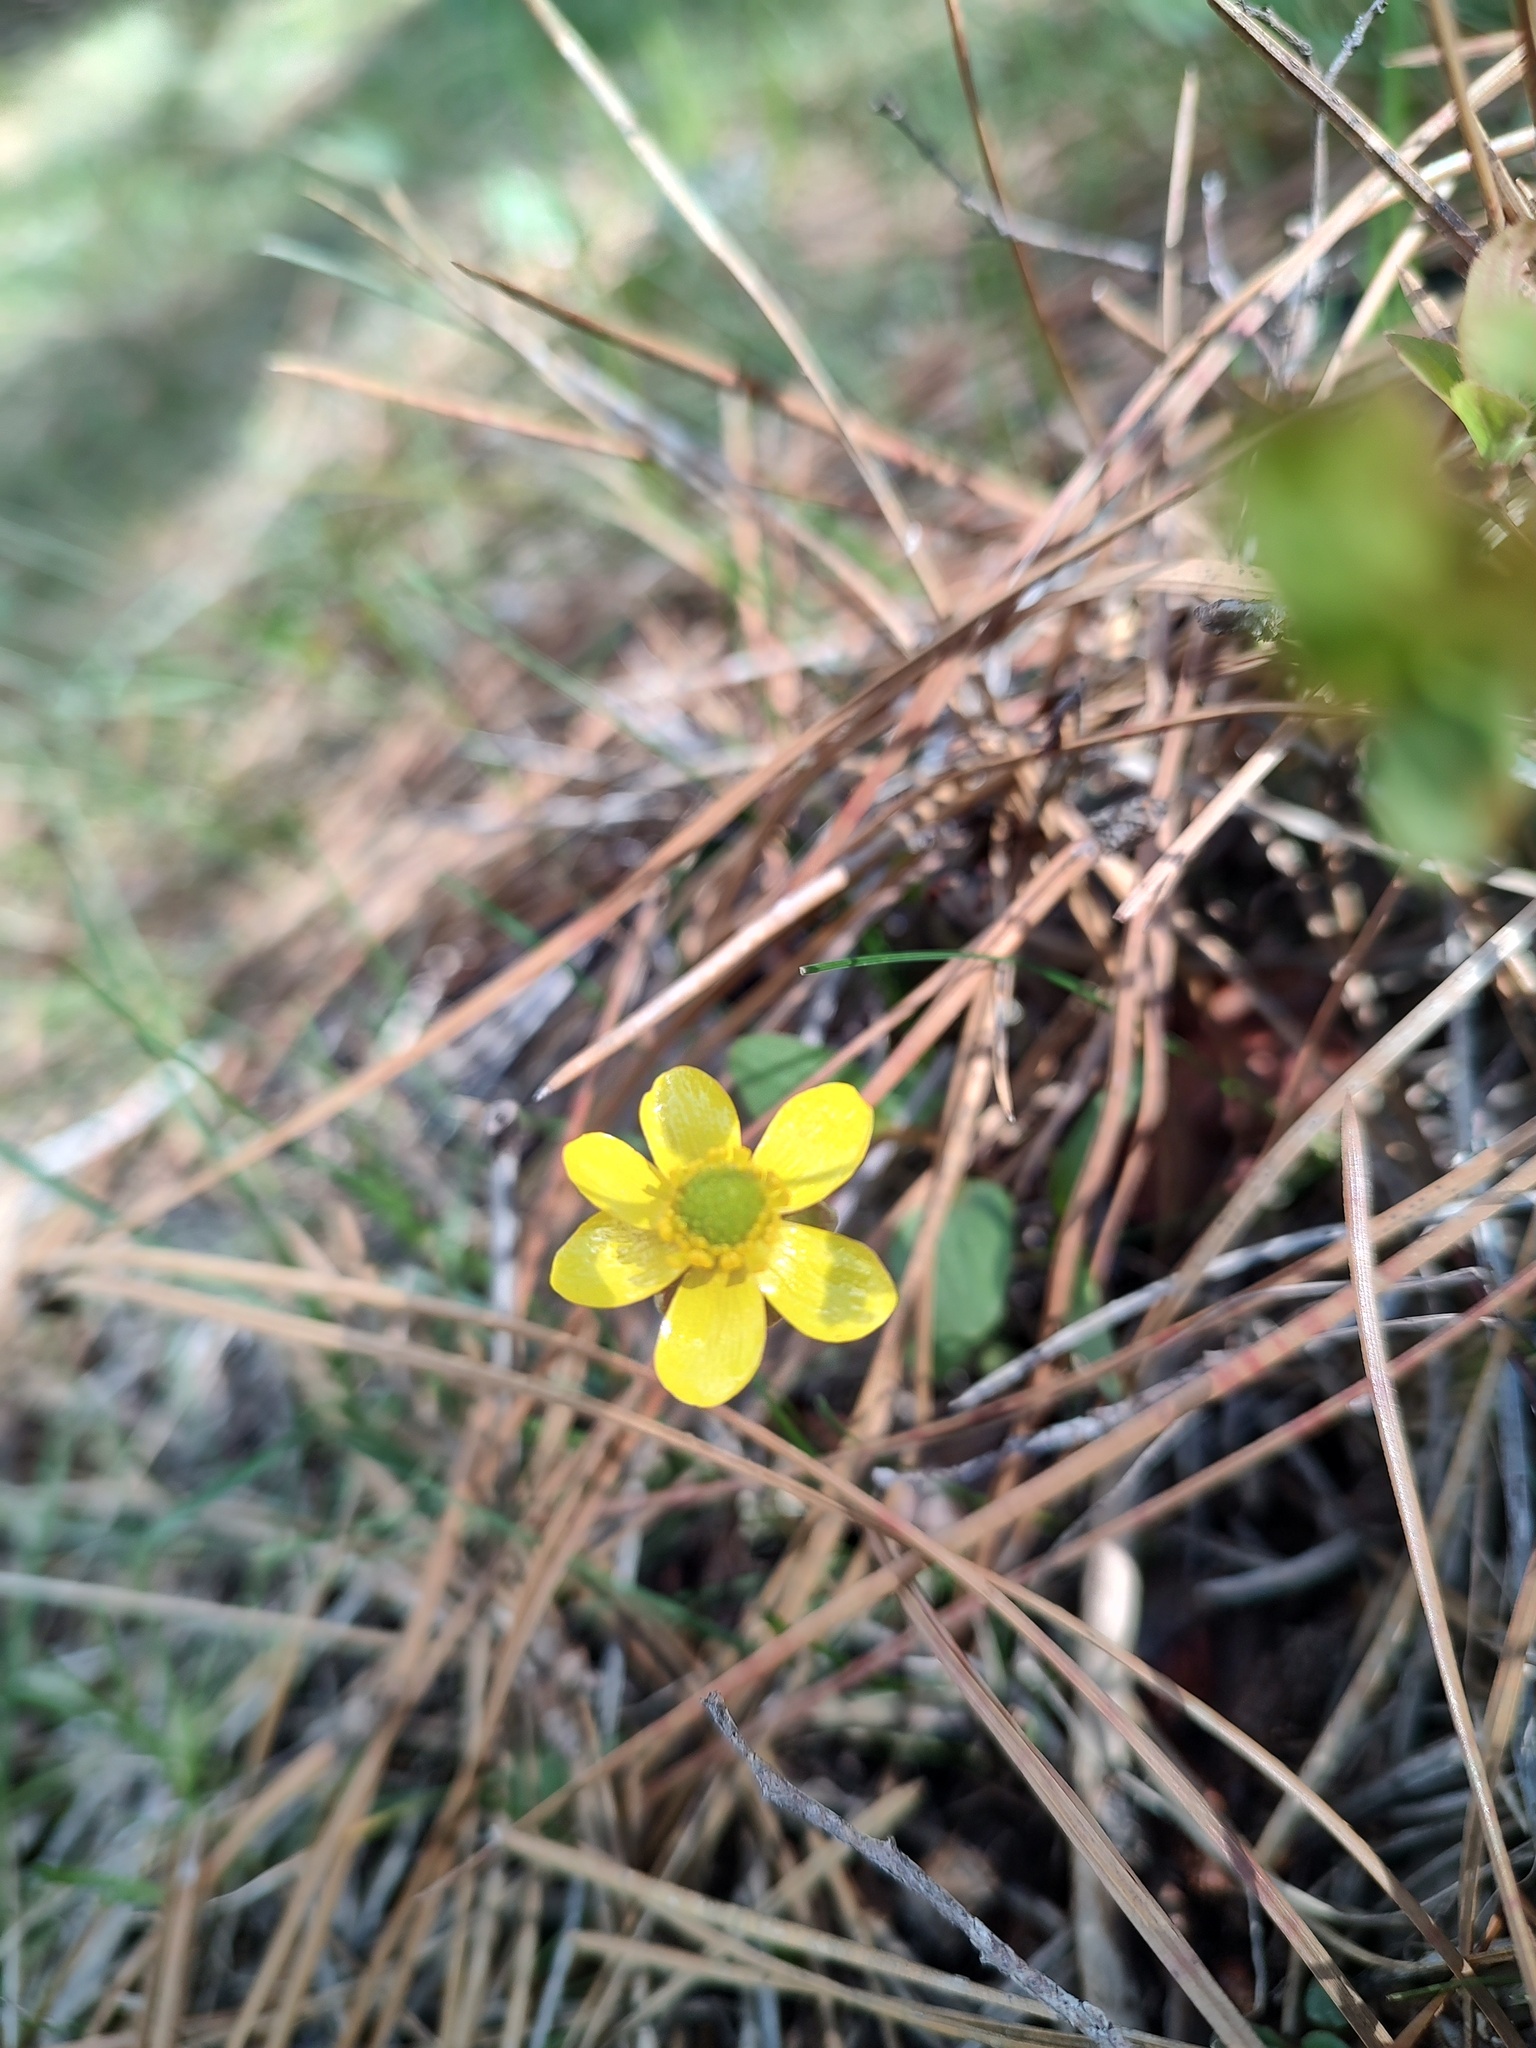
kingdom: Plantae
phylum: Tracheophyta
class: Magnoliopsida
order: Ranunculales
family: Ranunculaceae
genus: Ranunculus
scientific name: Ranunculus glaberrimus
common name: Sagebrush buttercup
